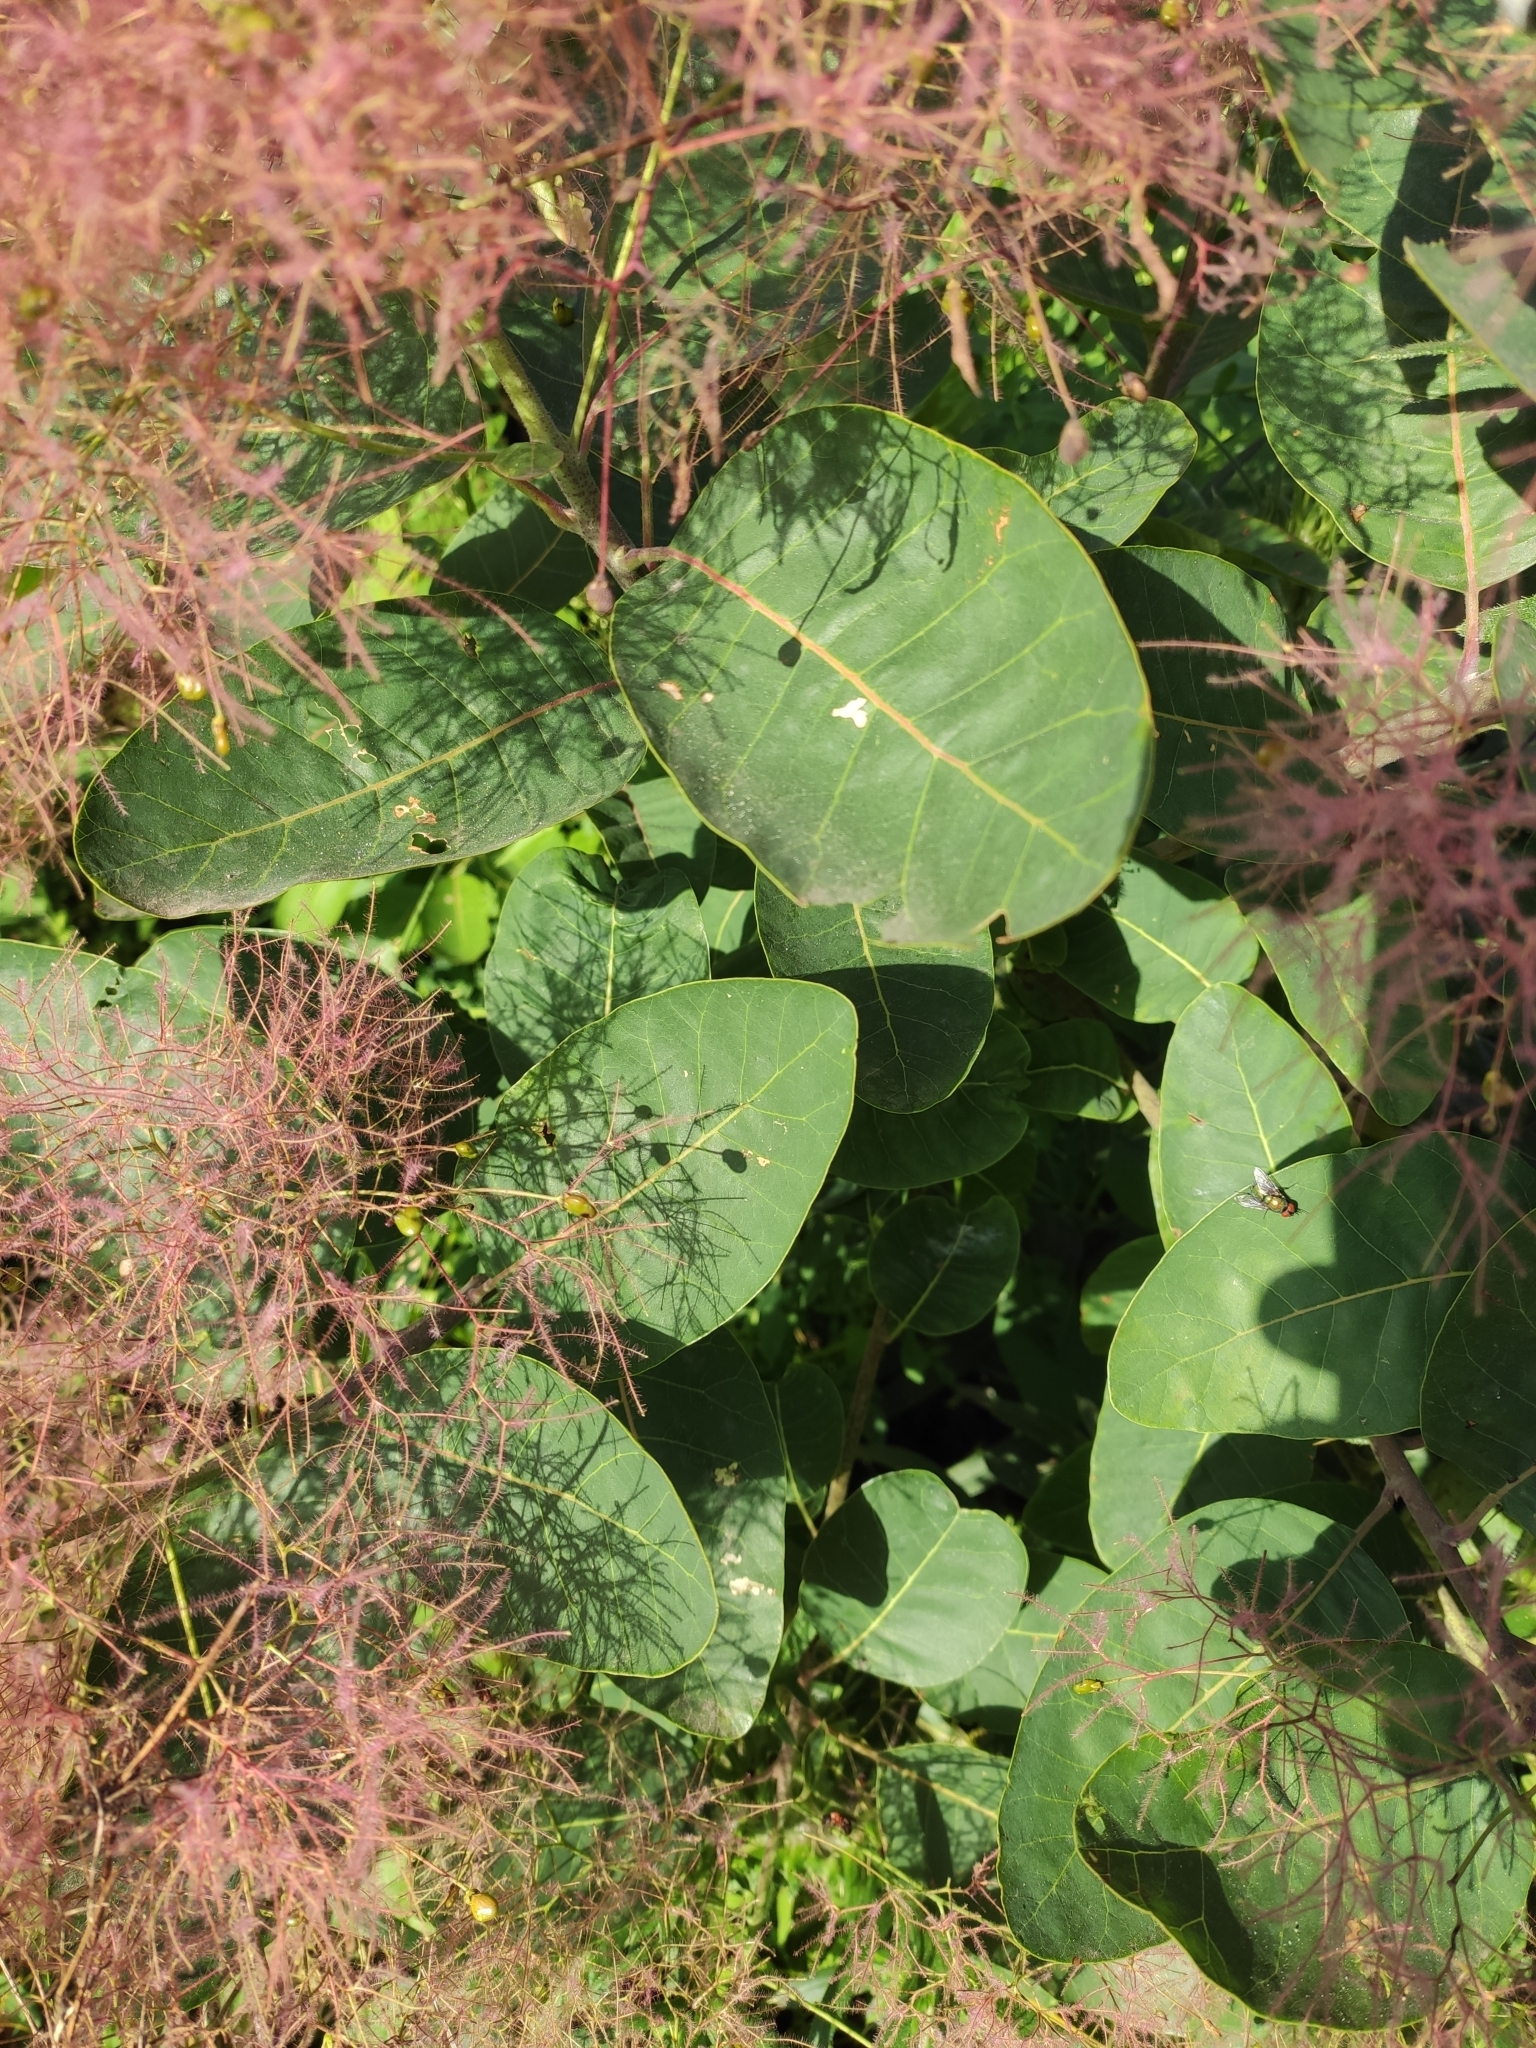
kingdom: Plantae
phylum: Tracheophyta
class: Magnoliopsida
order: Sapindales
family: Anacardiaceae
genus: Cotinus
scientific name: Cotinus coggygria
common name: Smoke-tree
